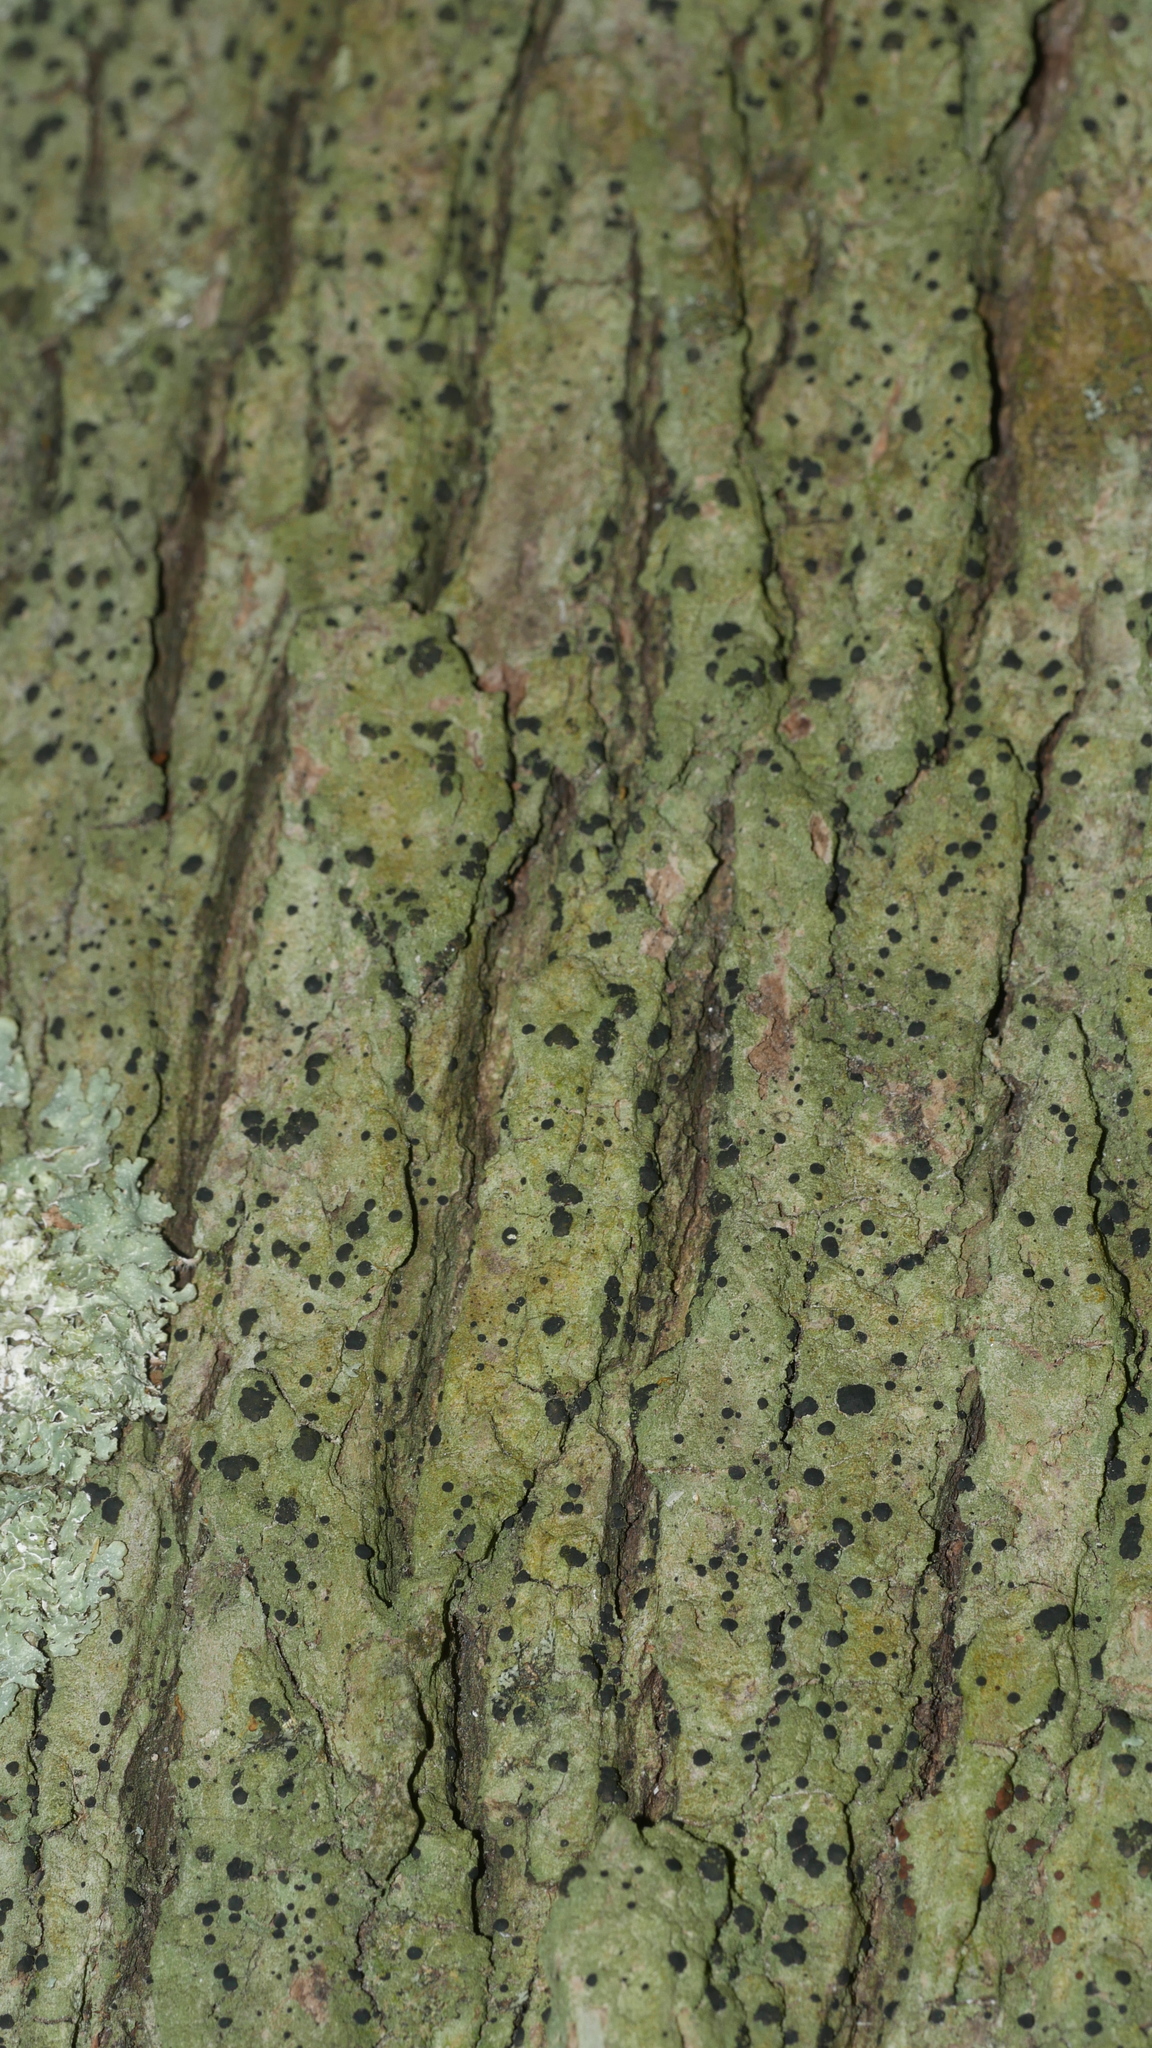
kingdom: Fungi
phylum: Ascomycota
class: Lecanoromycetes
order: Lecanorales
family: Ramalinaceae
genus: Bacidia
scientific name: Bacidia schweinitzii
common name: Surprise lichen
